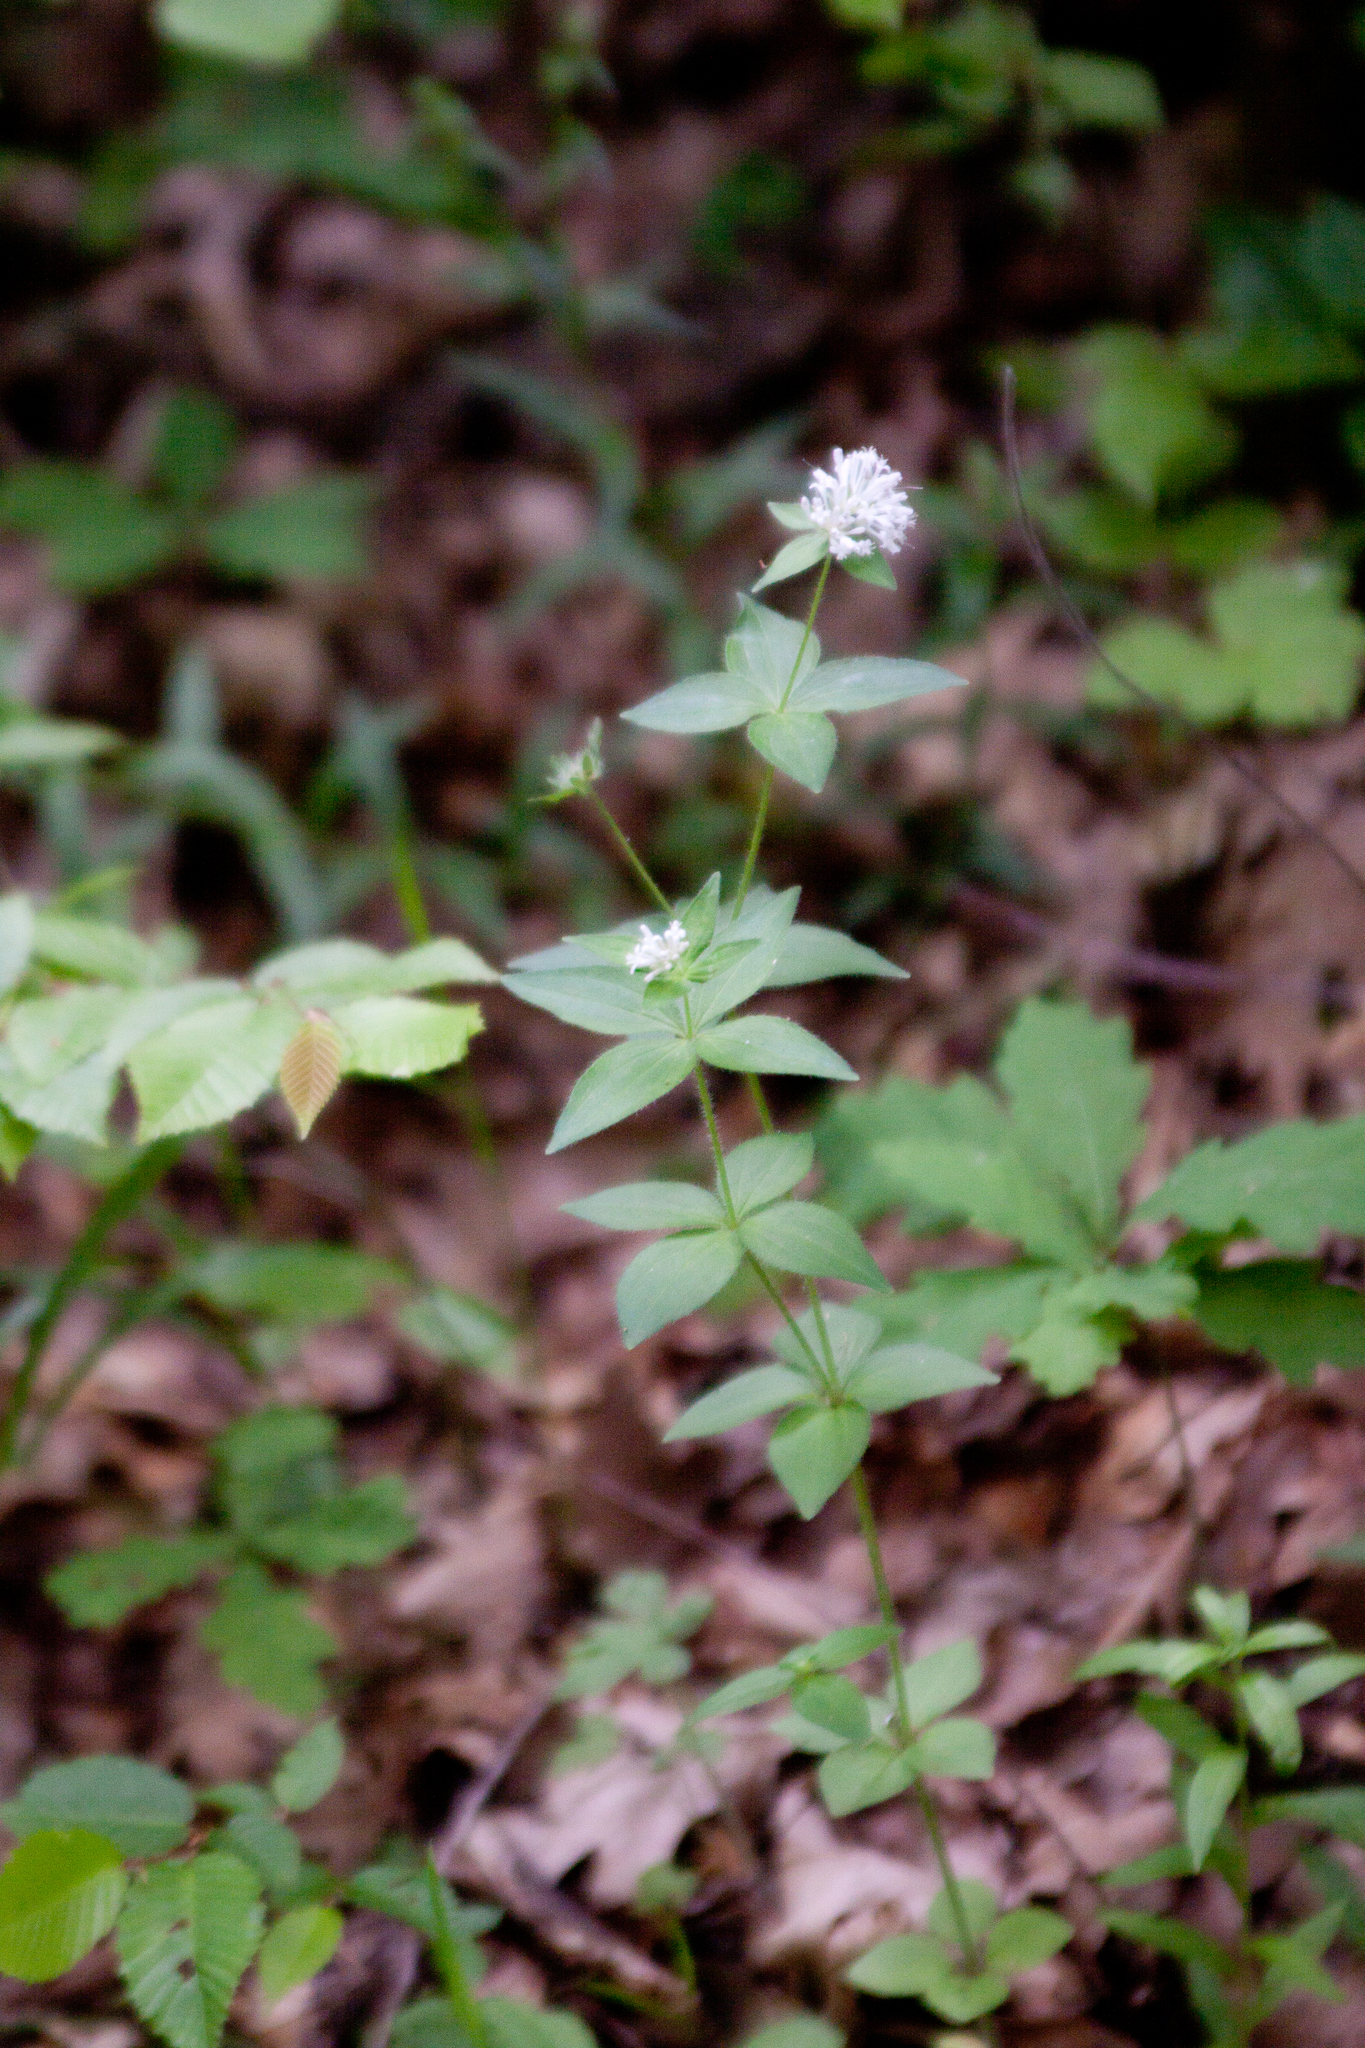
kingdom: Plantae
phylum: Tracheophyta
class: Magnoliopsida
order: Gentianales
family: Rubiaceae
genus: Asperula
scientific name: Asperula taurina
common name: Pink woodruff
